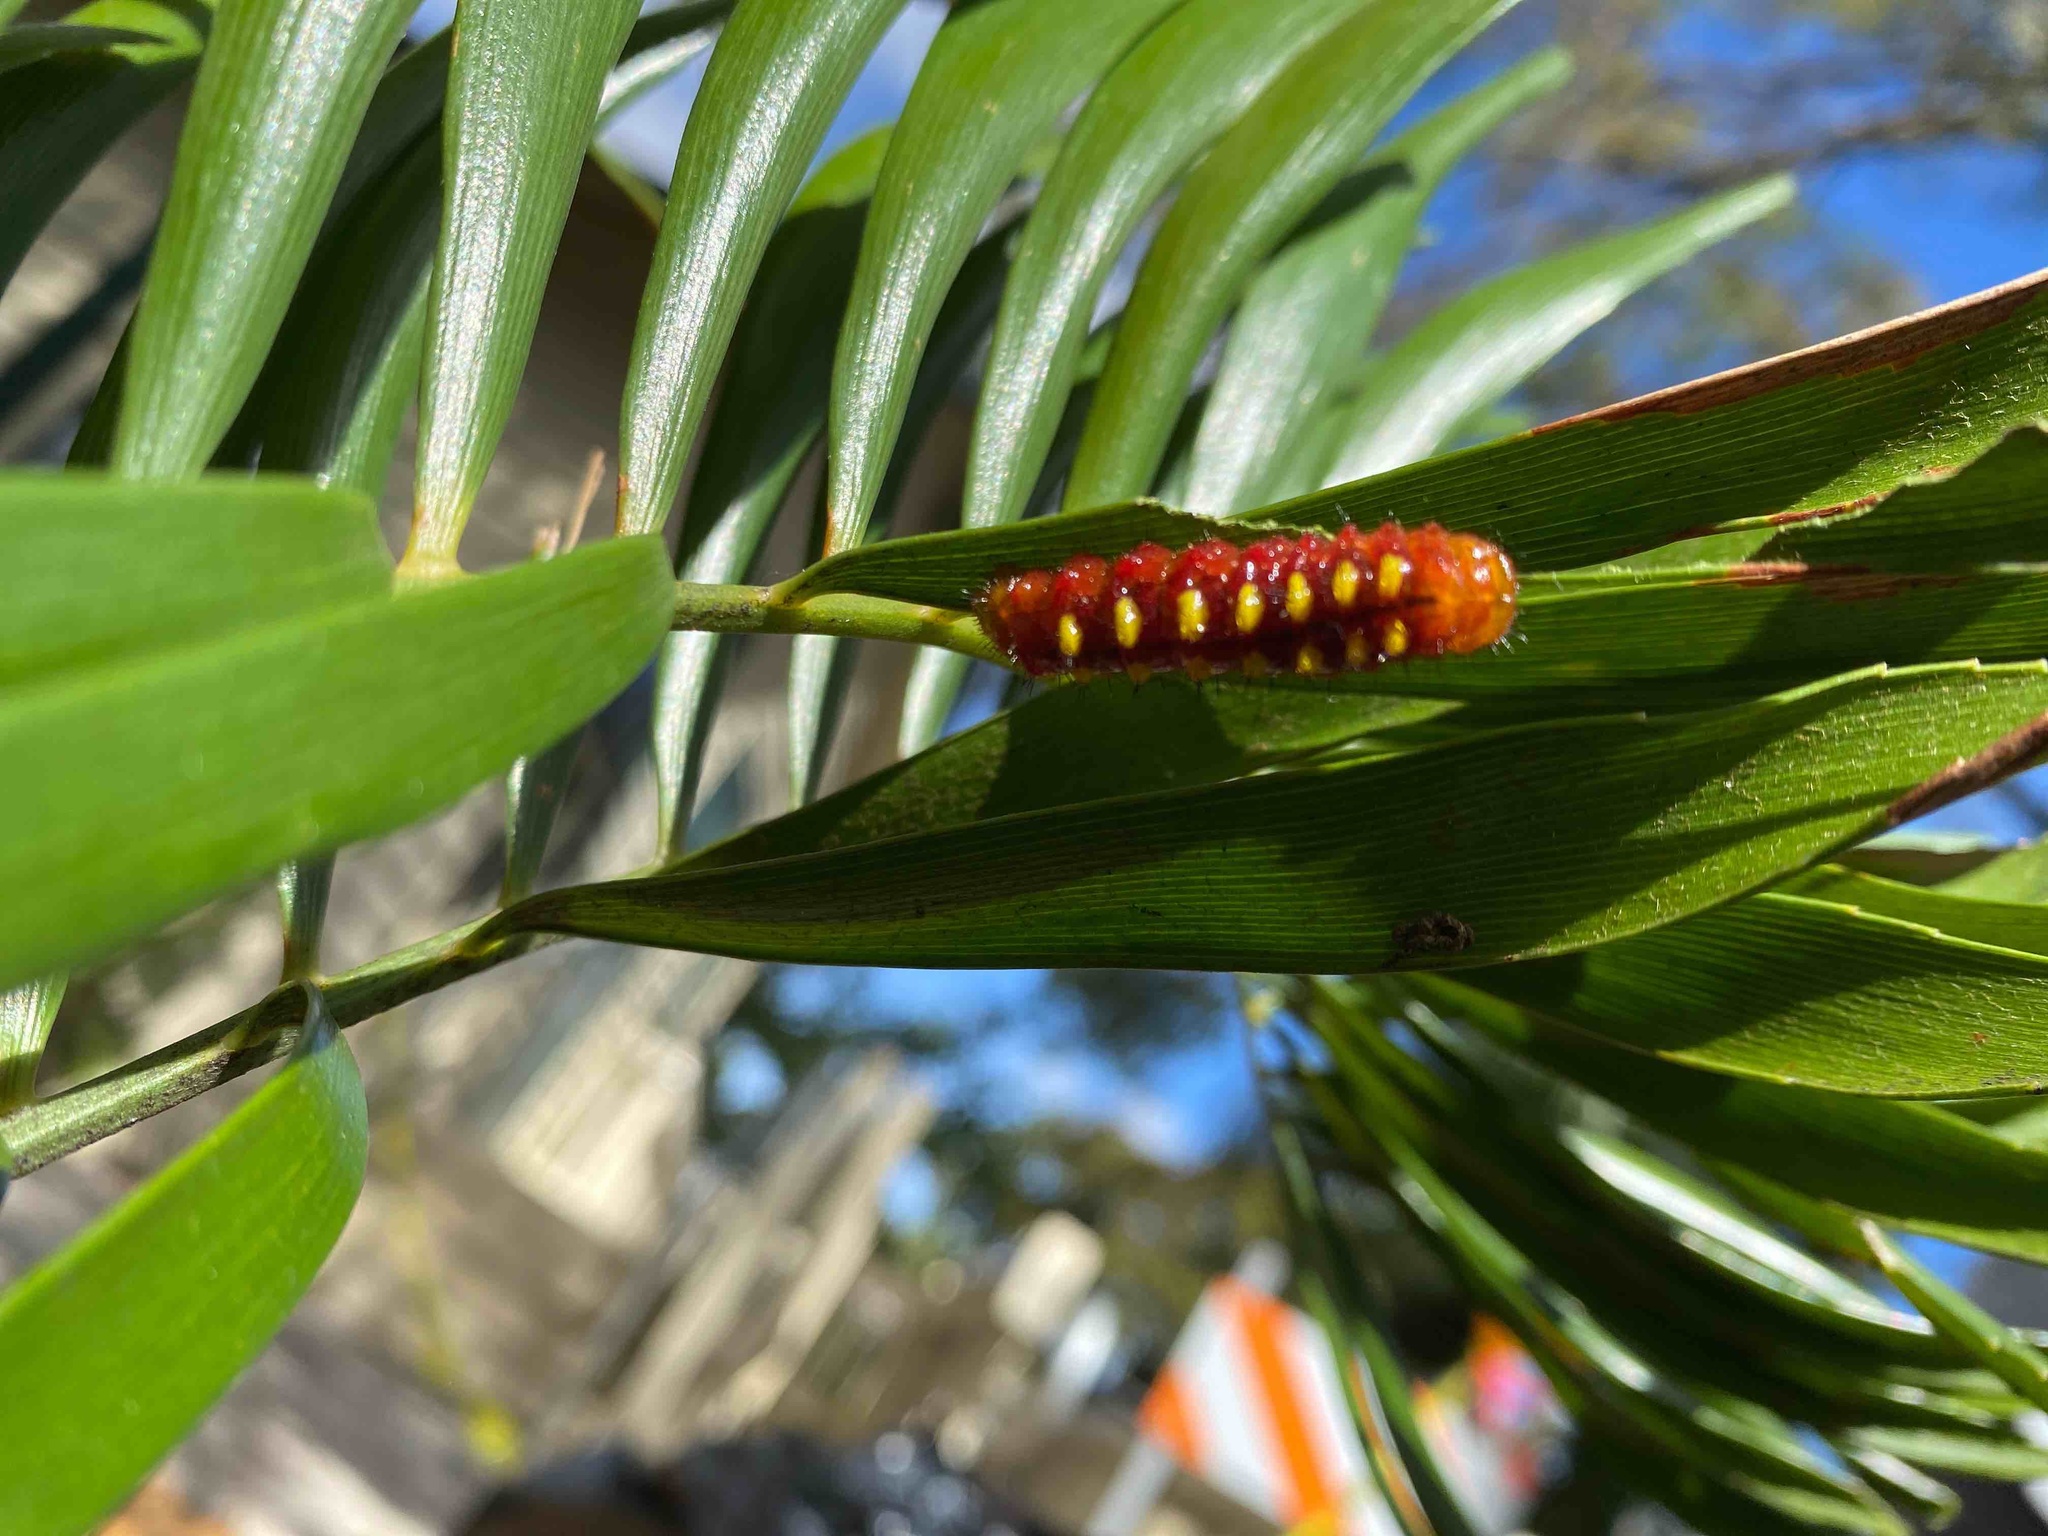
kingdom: Animalia
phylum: Arthropoda
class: Insecta
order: Lepidoptera
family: Lycaenidae
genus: Eumaeus
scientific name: Eumaeus atala
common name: Atala
